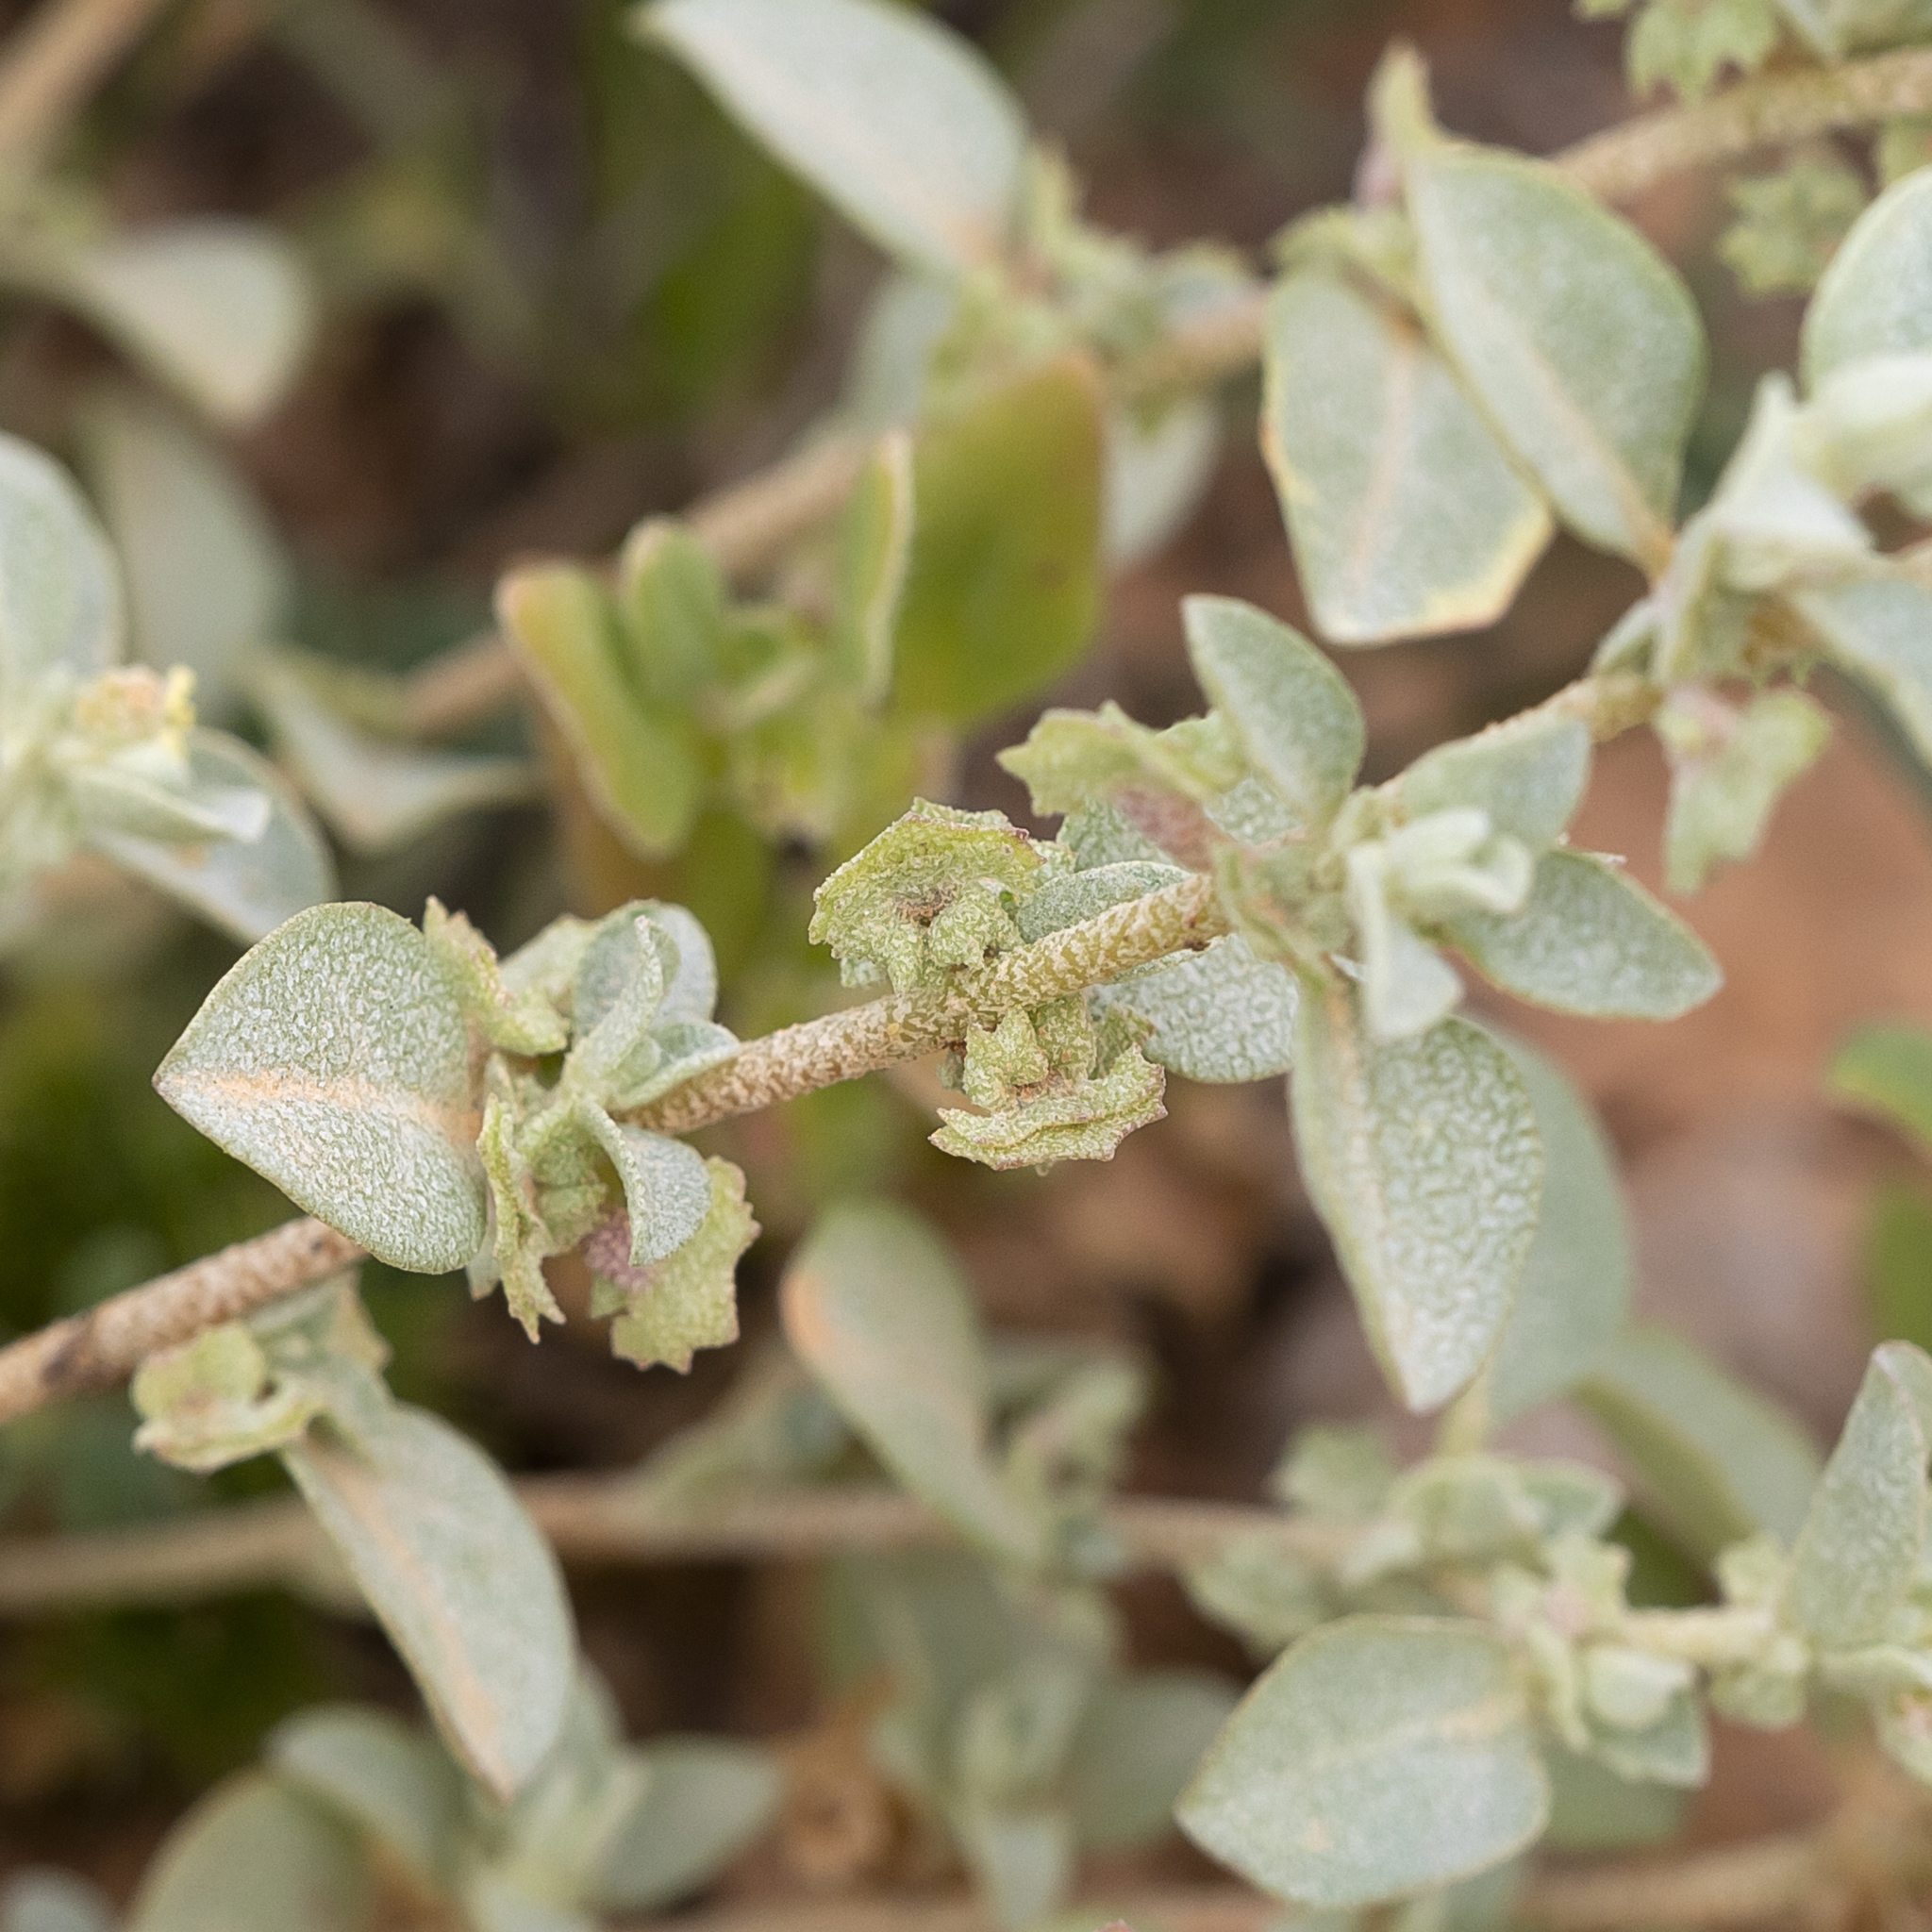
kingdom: Plantae
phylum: Tracheophyta
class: Magnoliopsida
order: Caryophyllales
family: Amaranthaceae
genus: Atriplex
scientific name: Atriplex eardleyae
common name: Small saltbush
